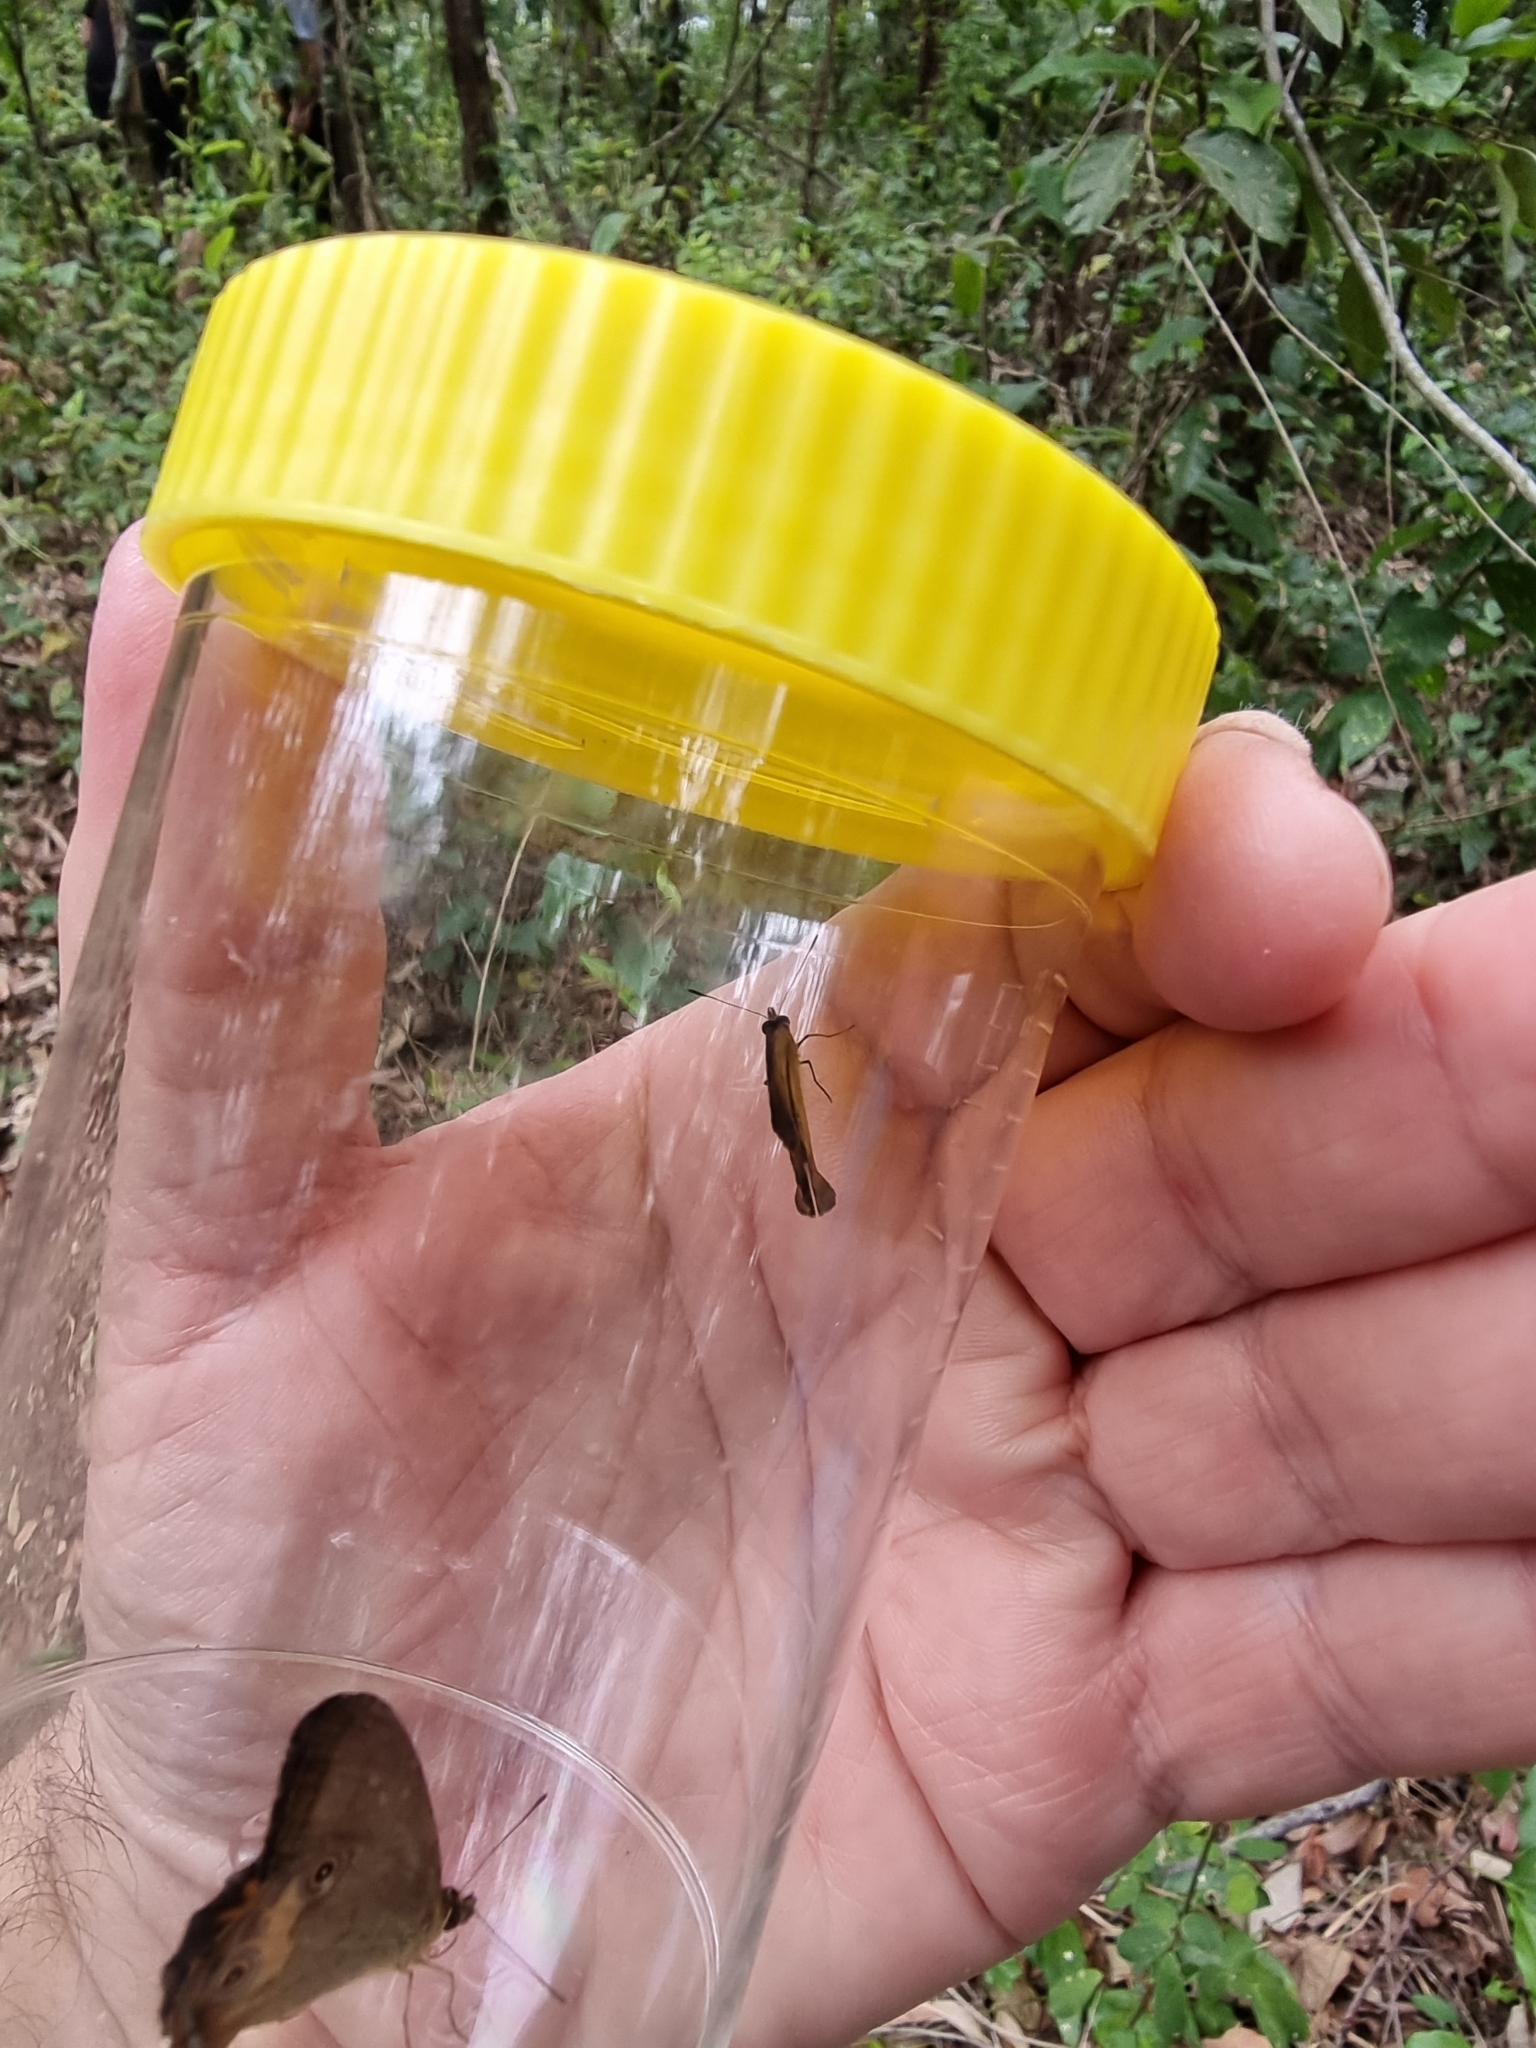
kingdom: Animalia
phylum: Arthropoda
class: Insecta
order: Lepidoptera
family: Nymphalidae
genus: Hypocysta
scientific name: Hypocysta metirius
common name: Brown ringlet
